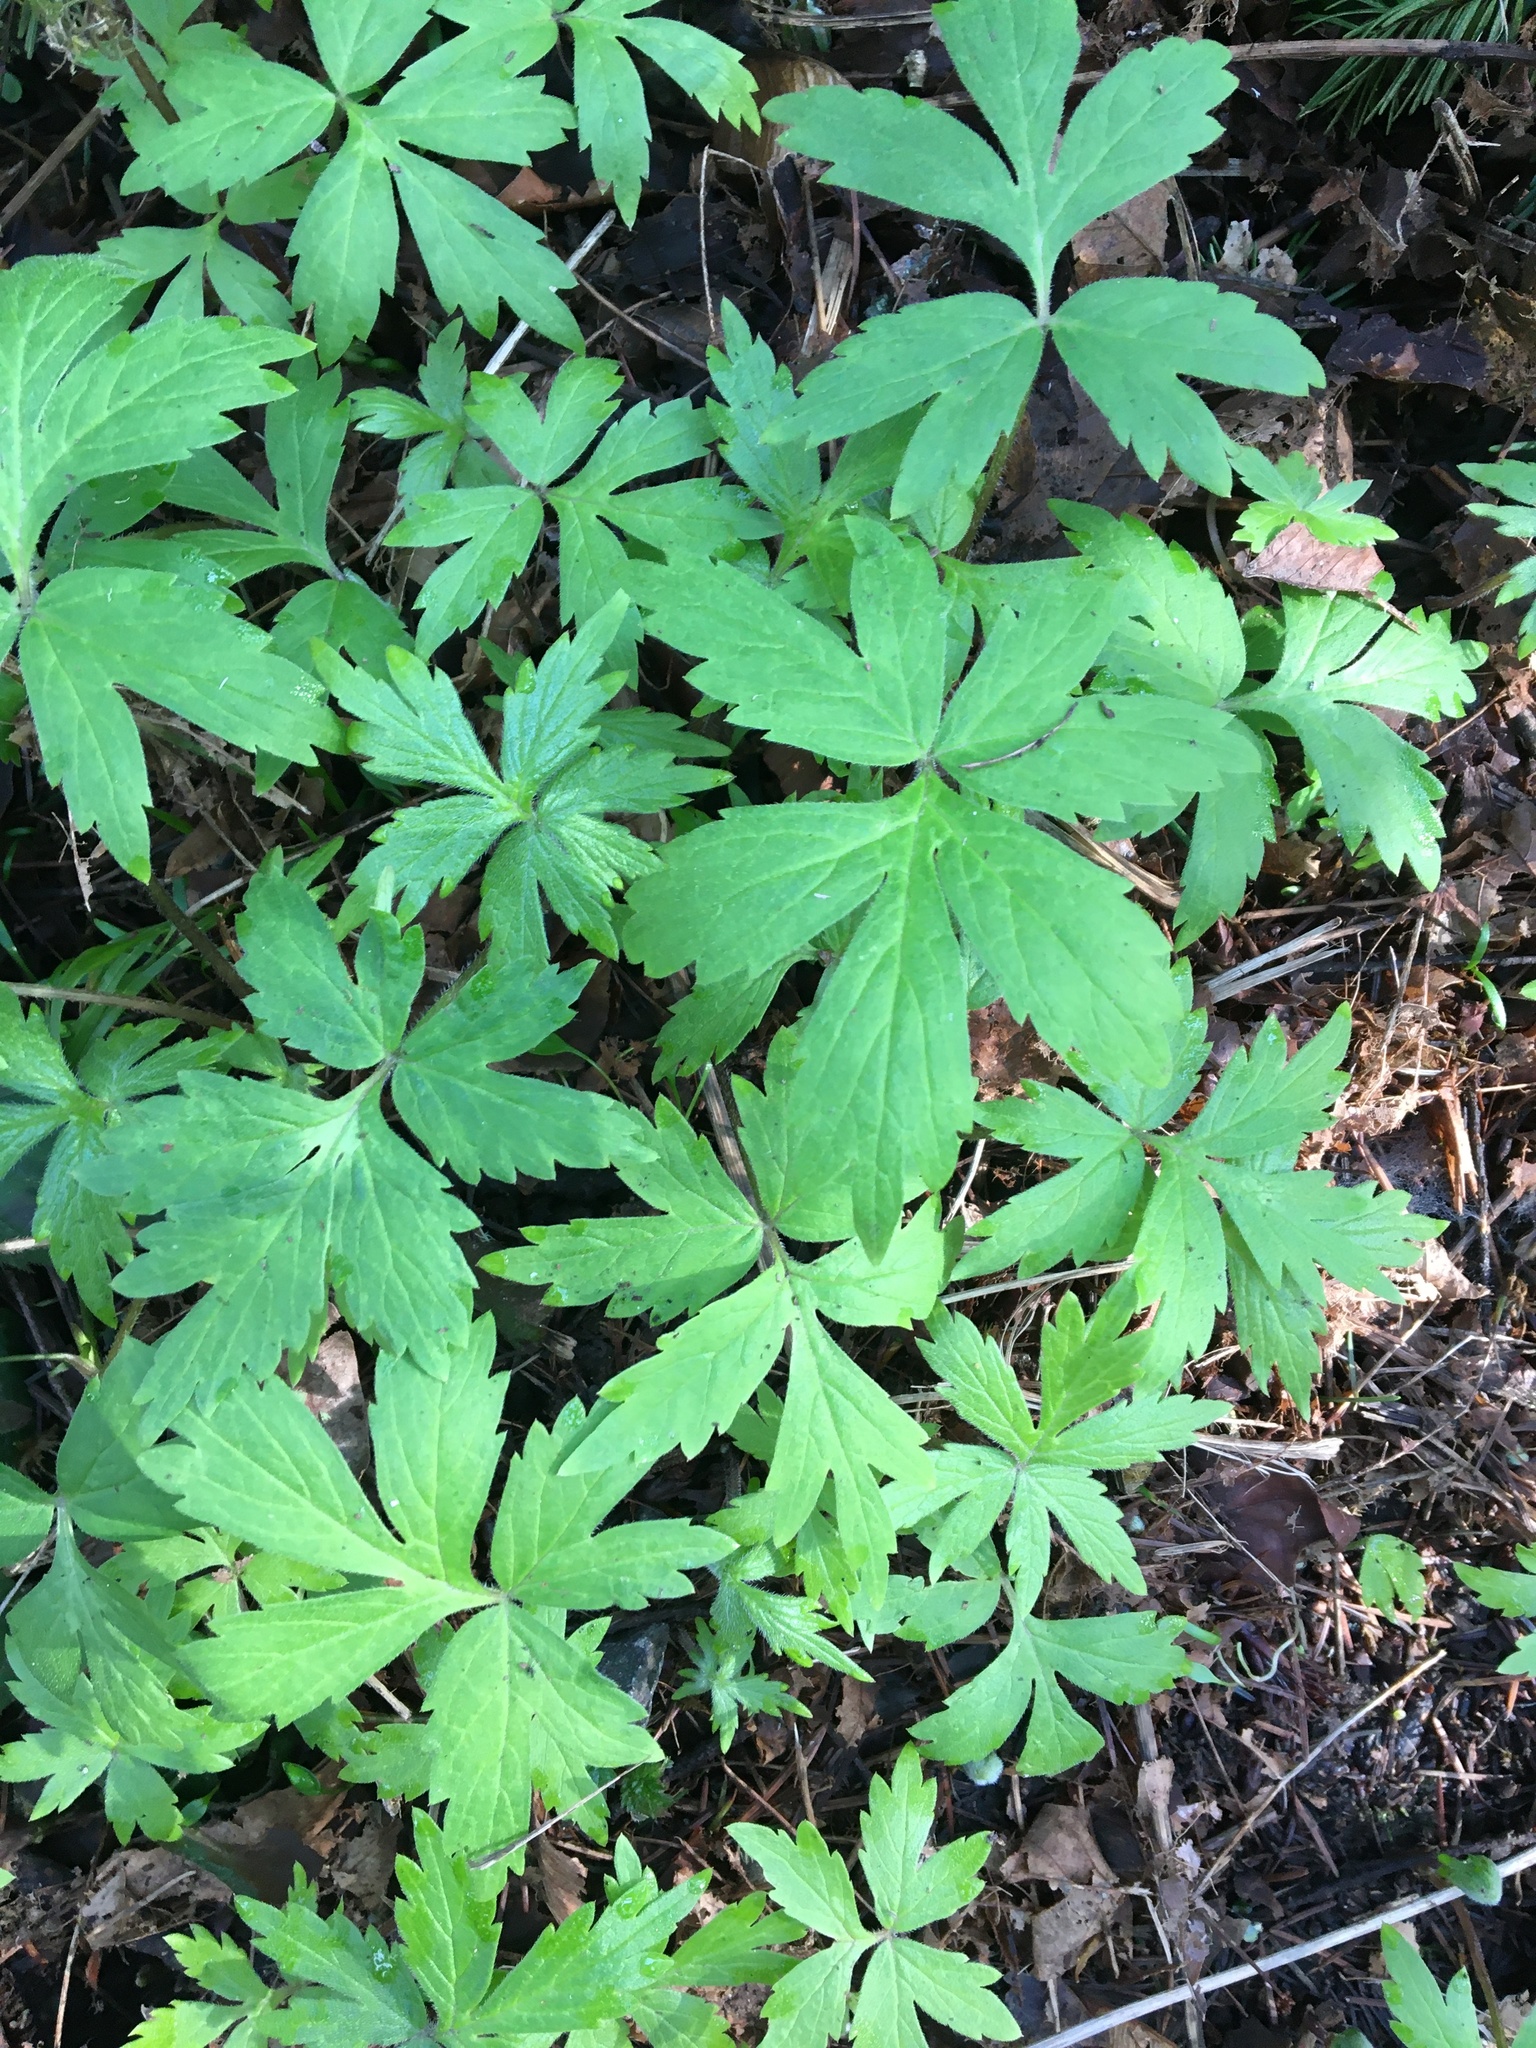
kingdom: Plantae
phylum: Tracheophyta
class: Magnoliopsida
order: Boraginales
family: Hydrophyllaceae
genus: Hydrophyllum
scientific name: Hydrophyllum tenuipes
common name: Pacific waterleaf
